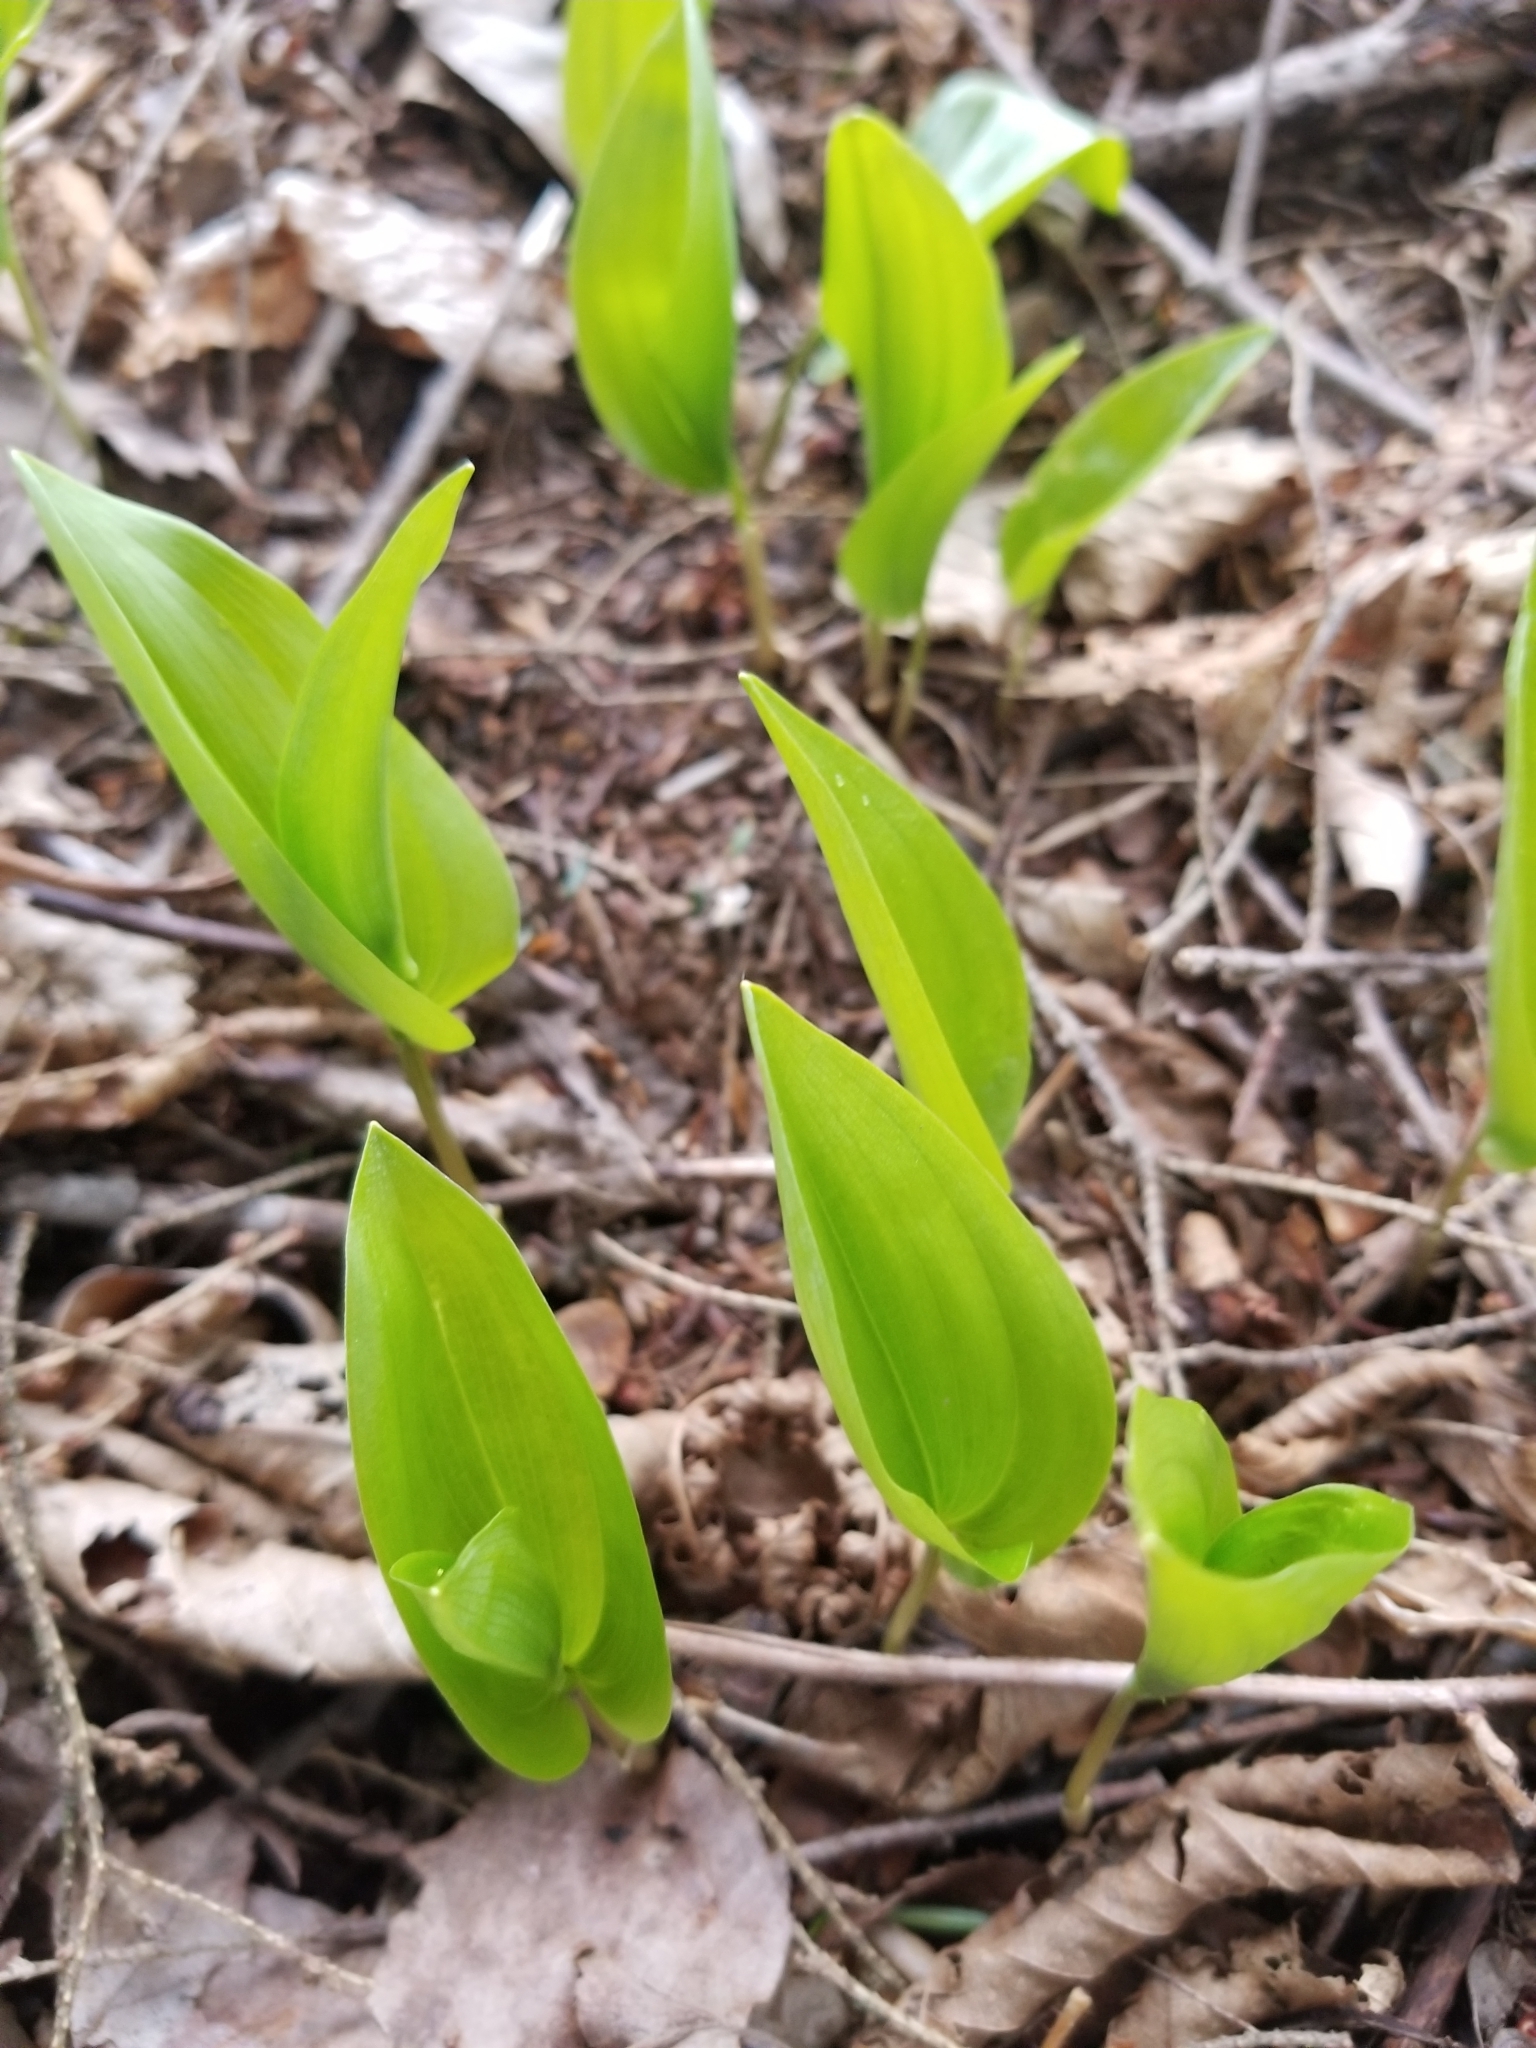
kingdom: Plantae
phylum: Tracheophyta
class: Liliopsida
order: Asparagales
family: Asparagaceae
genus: Maianthemum
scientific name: Maianthemum canadense
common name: False lily-of-the-valley
